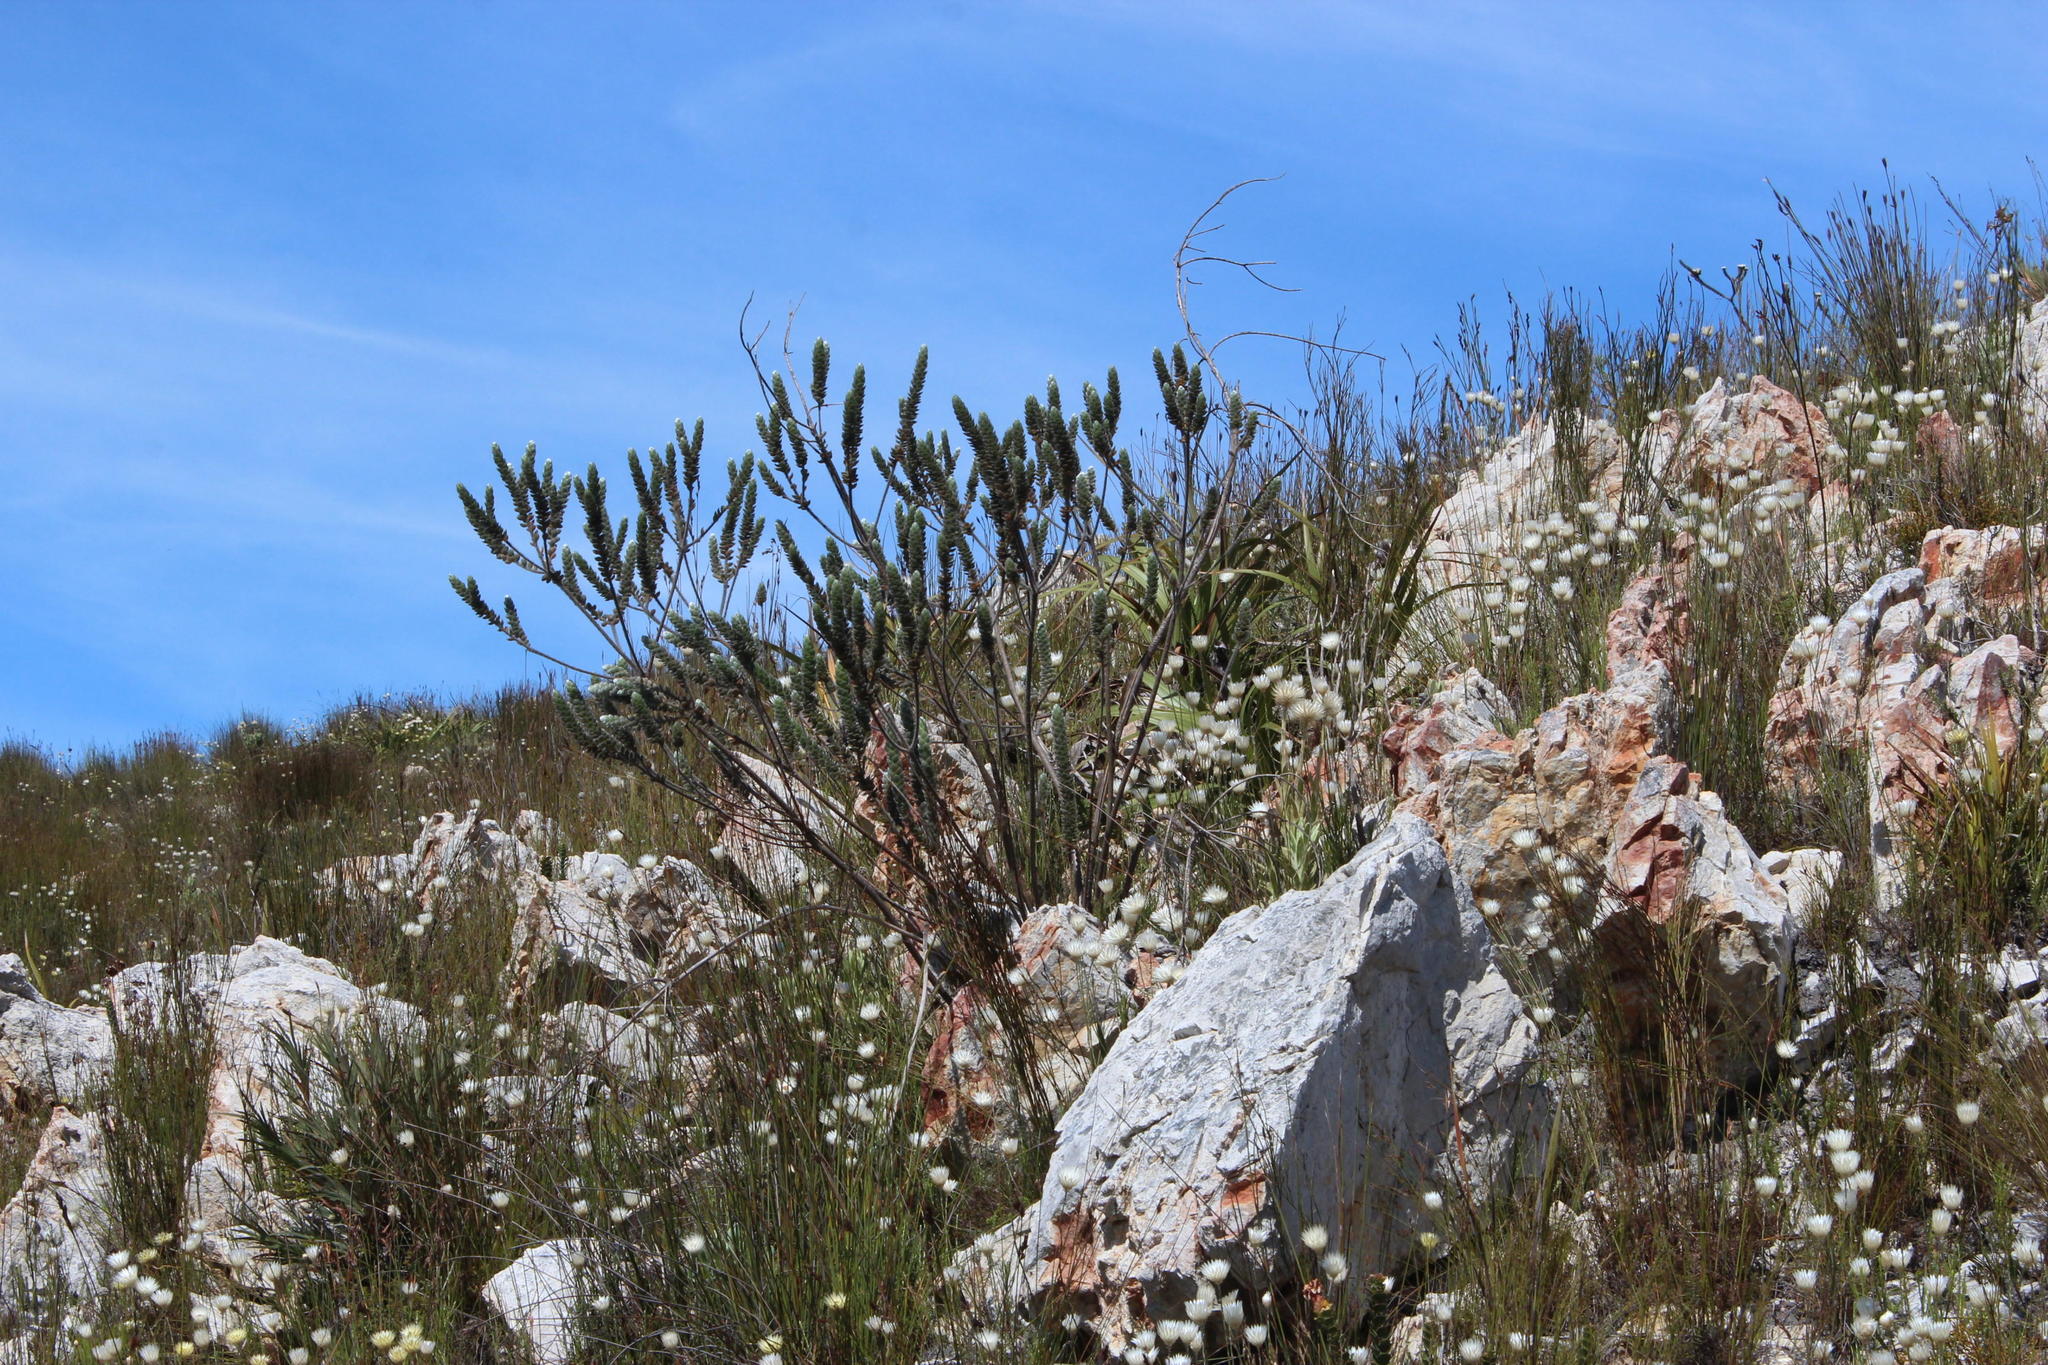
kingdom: Plantae
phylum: Tracheophyta
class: Magnoliopsida
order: Fabales
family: Fabaceae
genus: Liparia
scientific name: Liparia vestita
